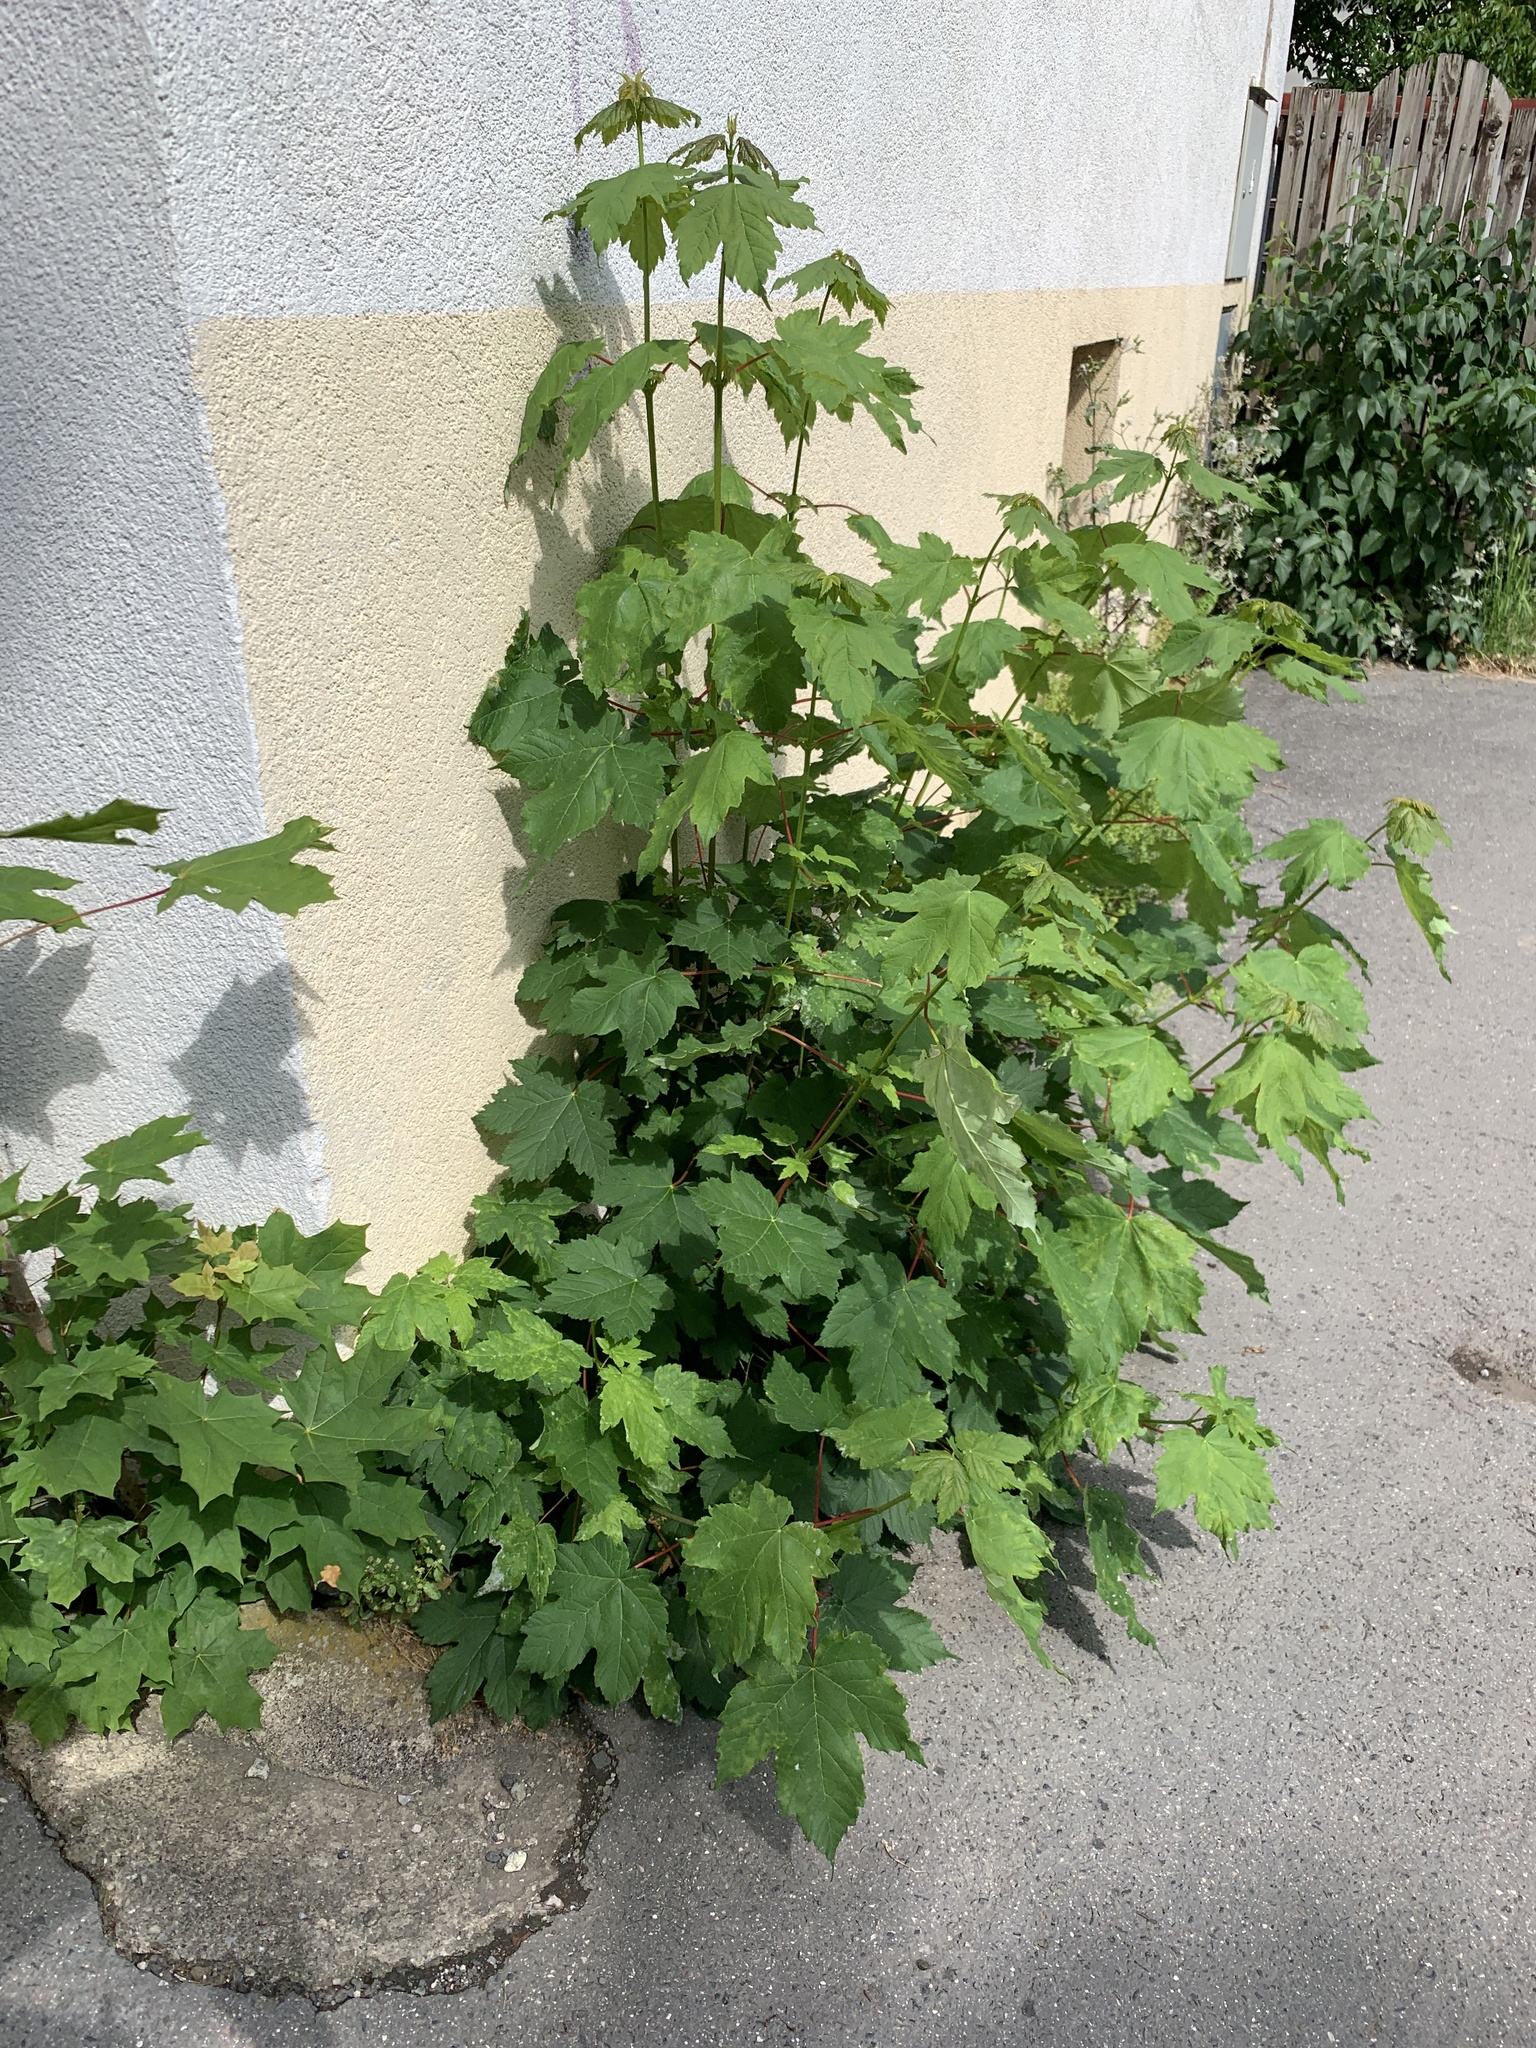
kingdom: Plantae
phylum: Tracheophyta
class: Magnoliopsida
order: Sapindales
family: Sapindaceae
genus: Acer
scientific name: Acer pseudoplatanus
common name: Sycamore
